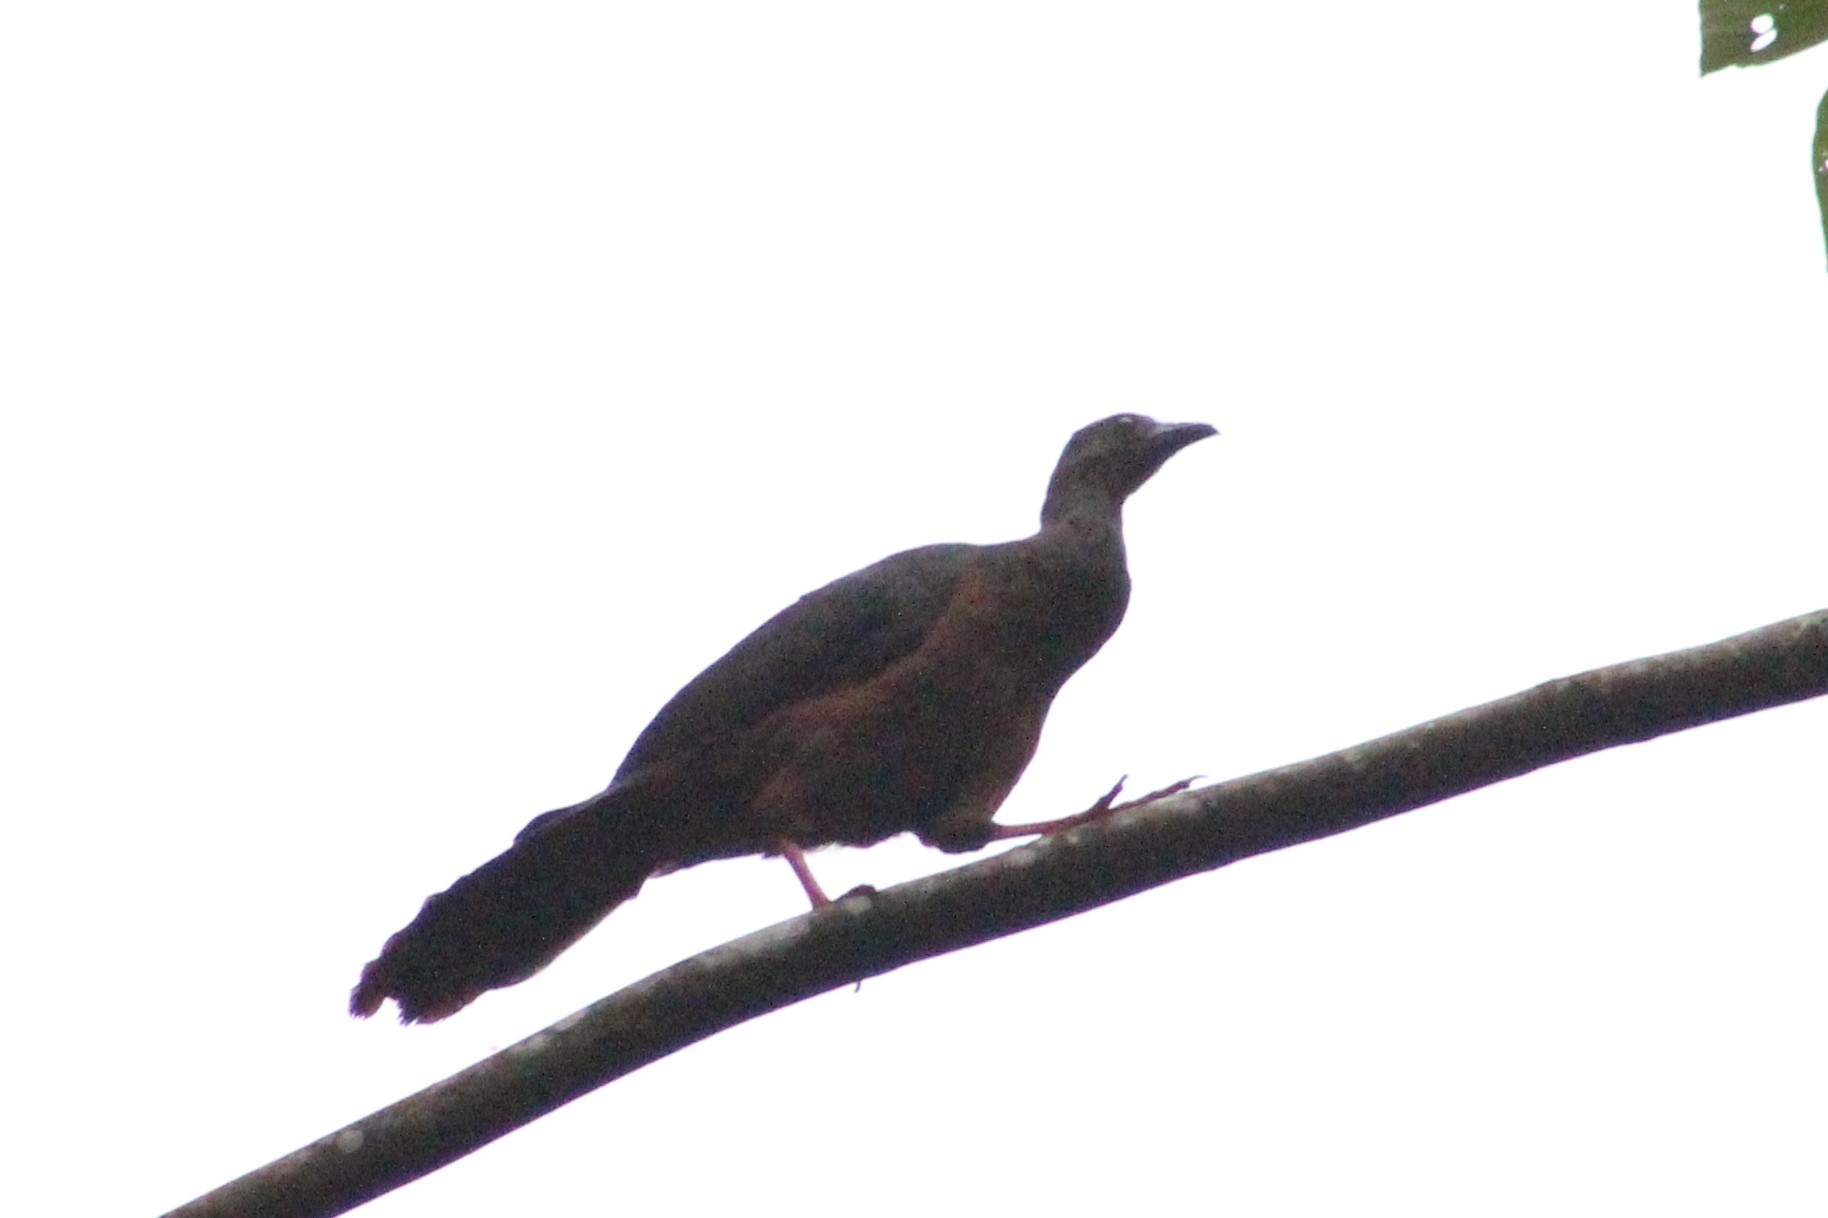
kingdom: Animalia
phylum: Chordata
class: Aves
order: Galliformes
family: Cracidae
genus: Chamaepetes
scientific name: Chamaepetes goudotii
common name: Sickle-winged guan
